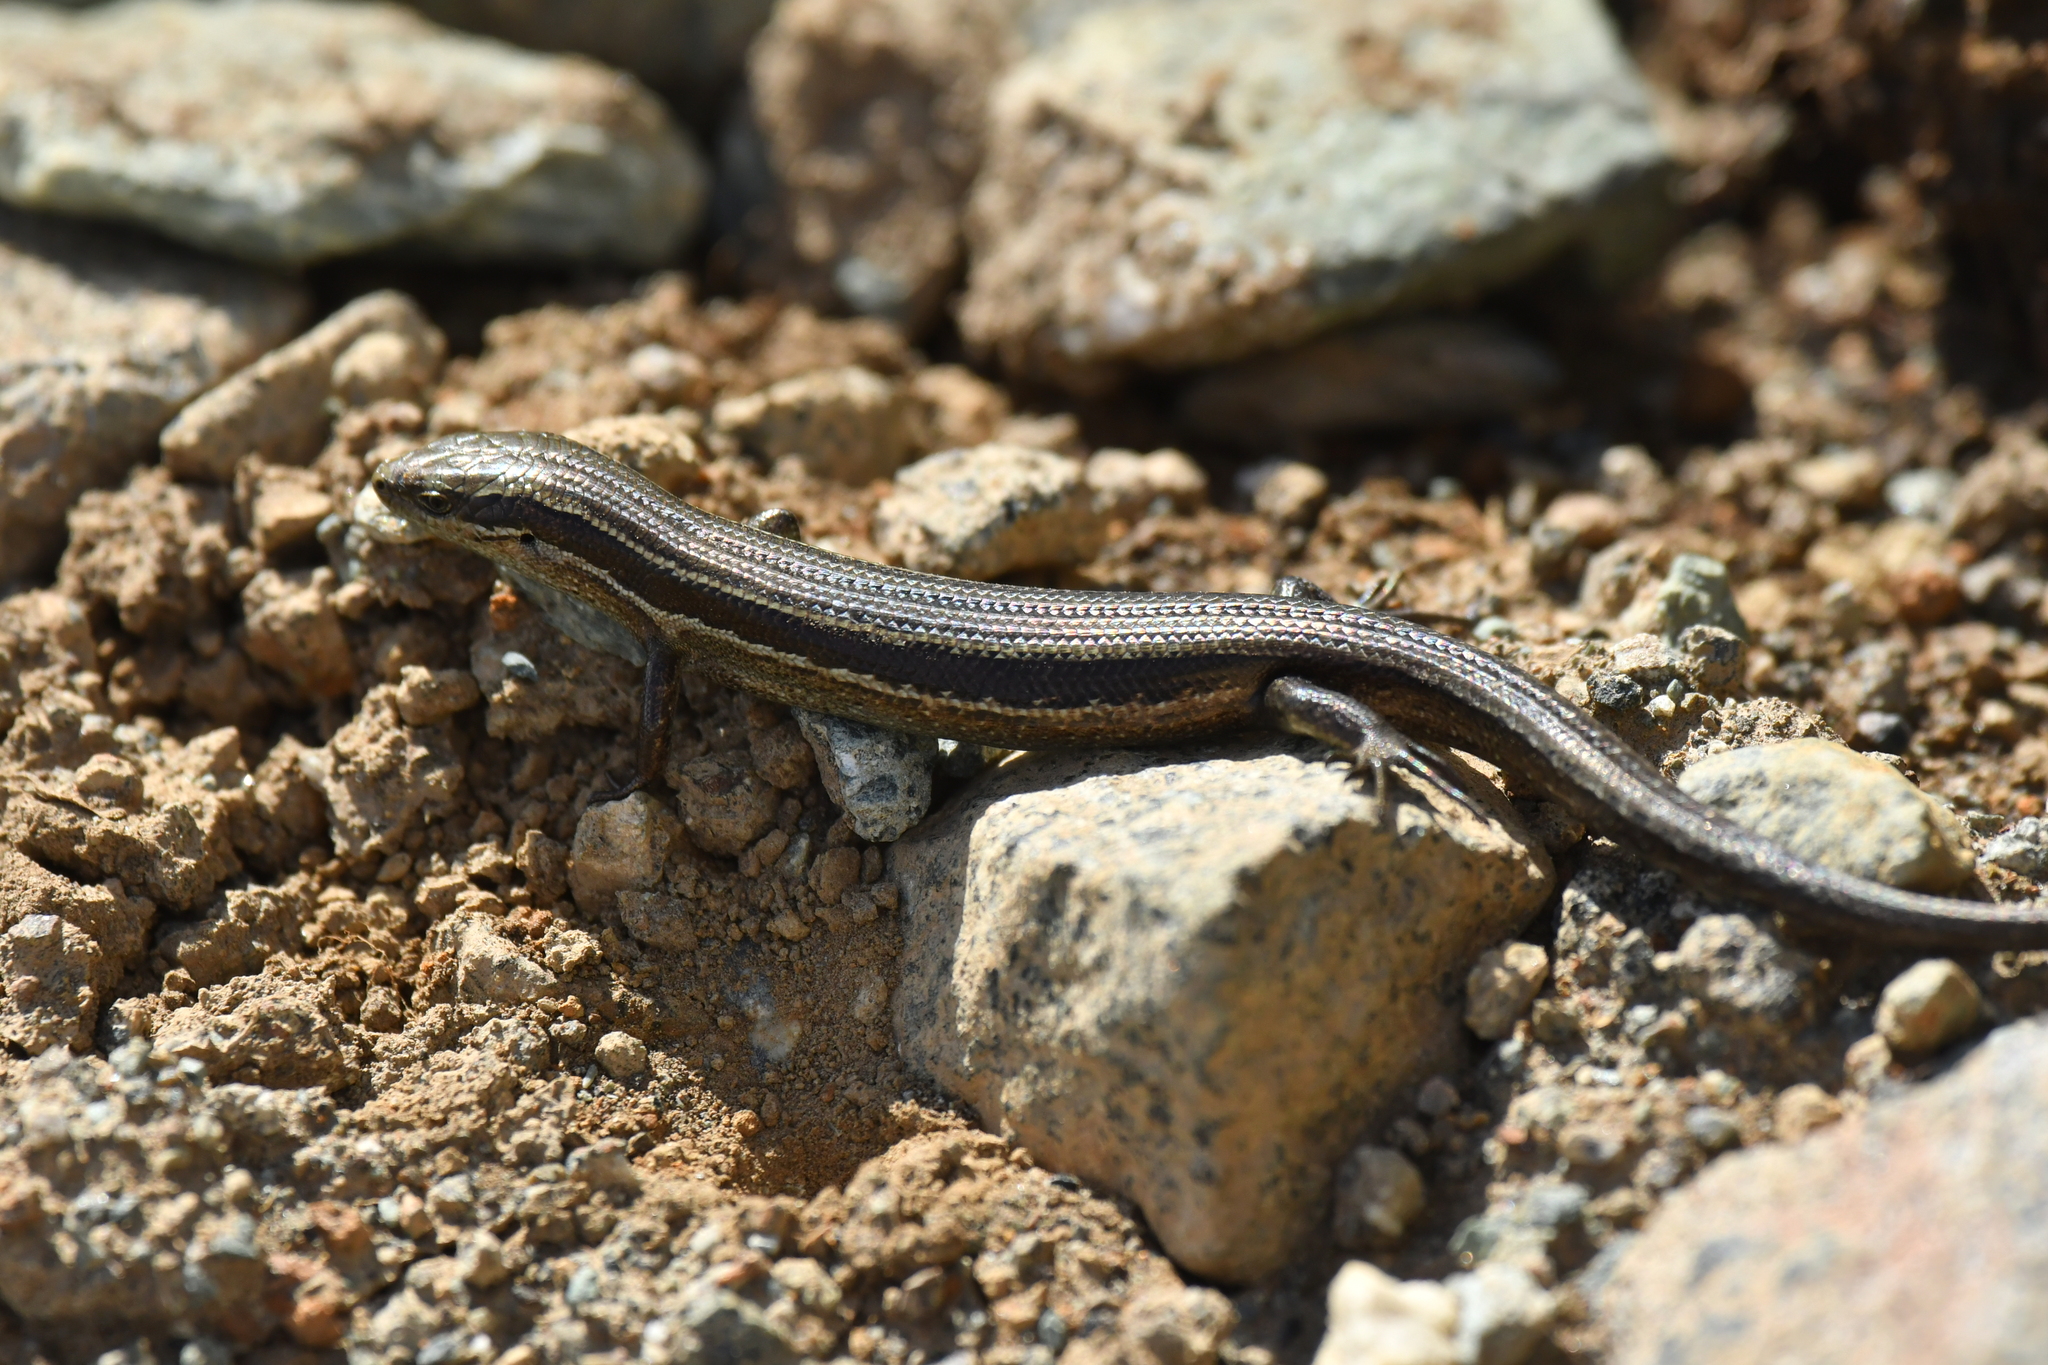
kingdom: Animalia
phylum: Chordata
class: Squamata
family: Scincidae
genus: Oligosoma
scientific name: Oligosoma repens
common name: Eyres skink
